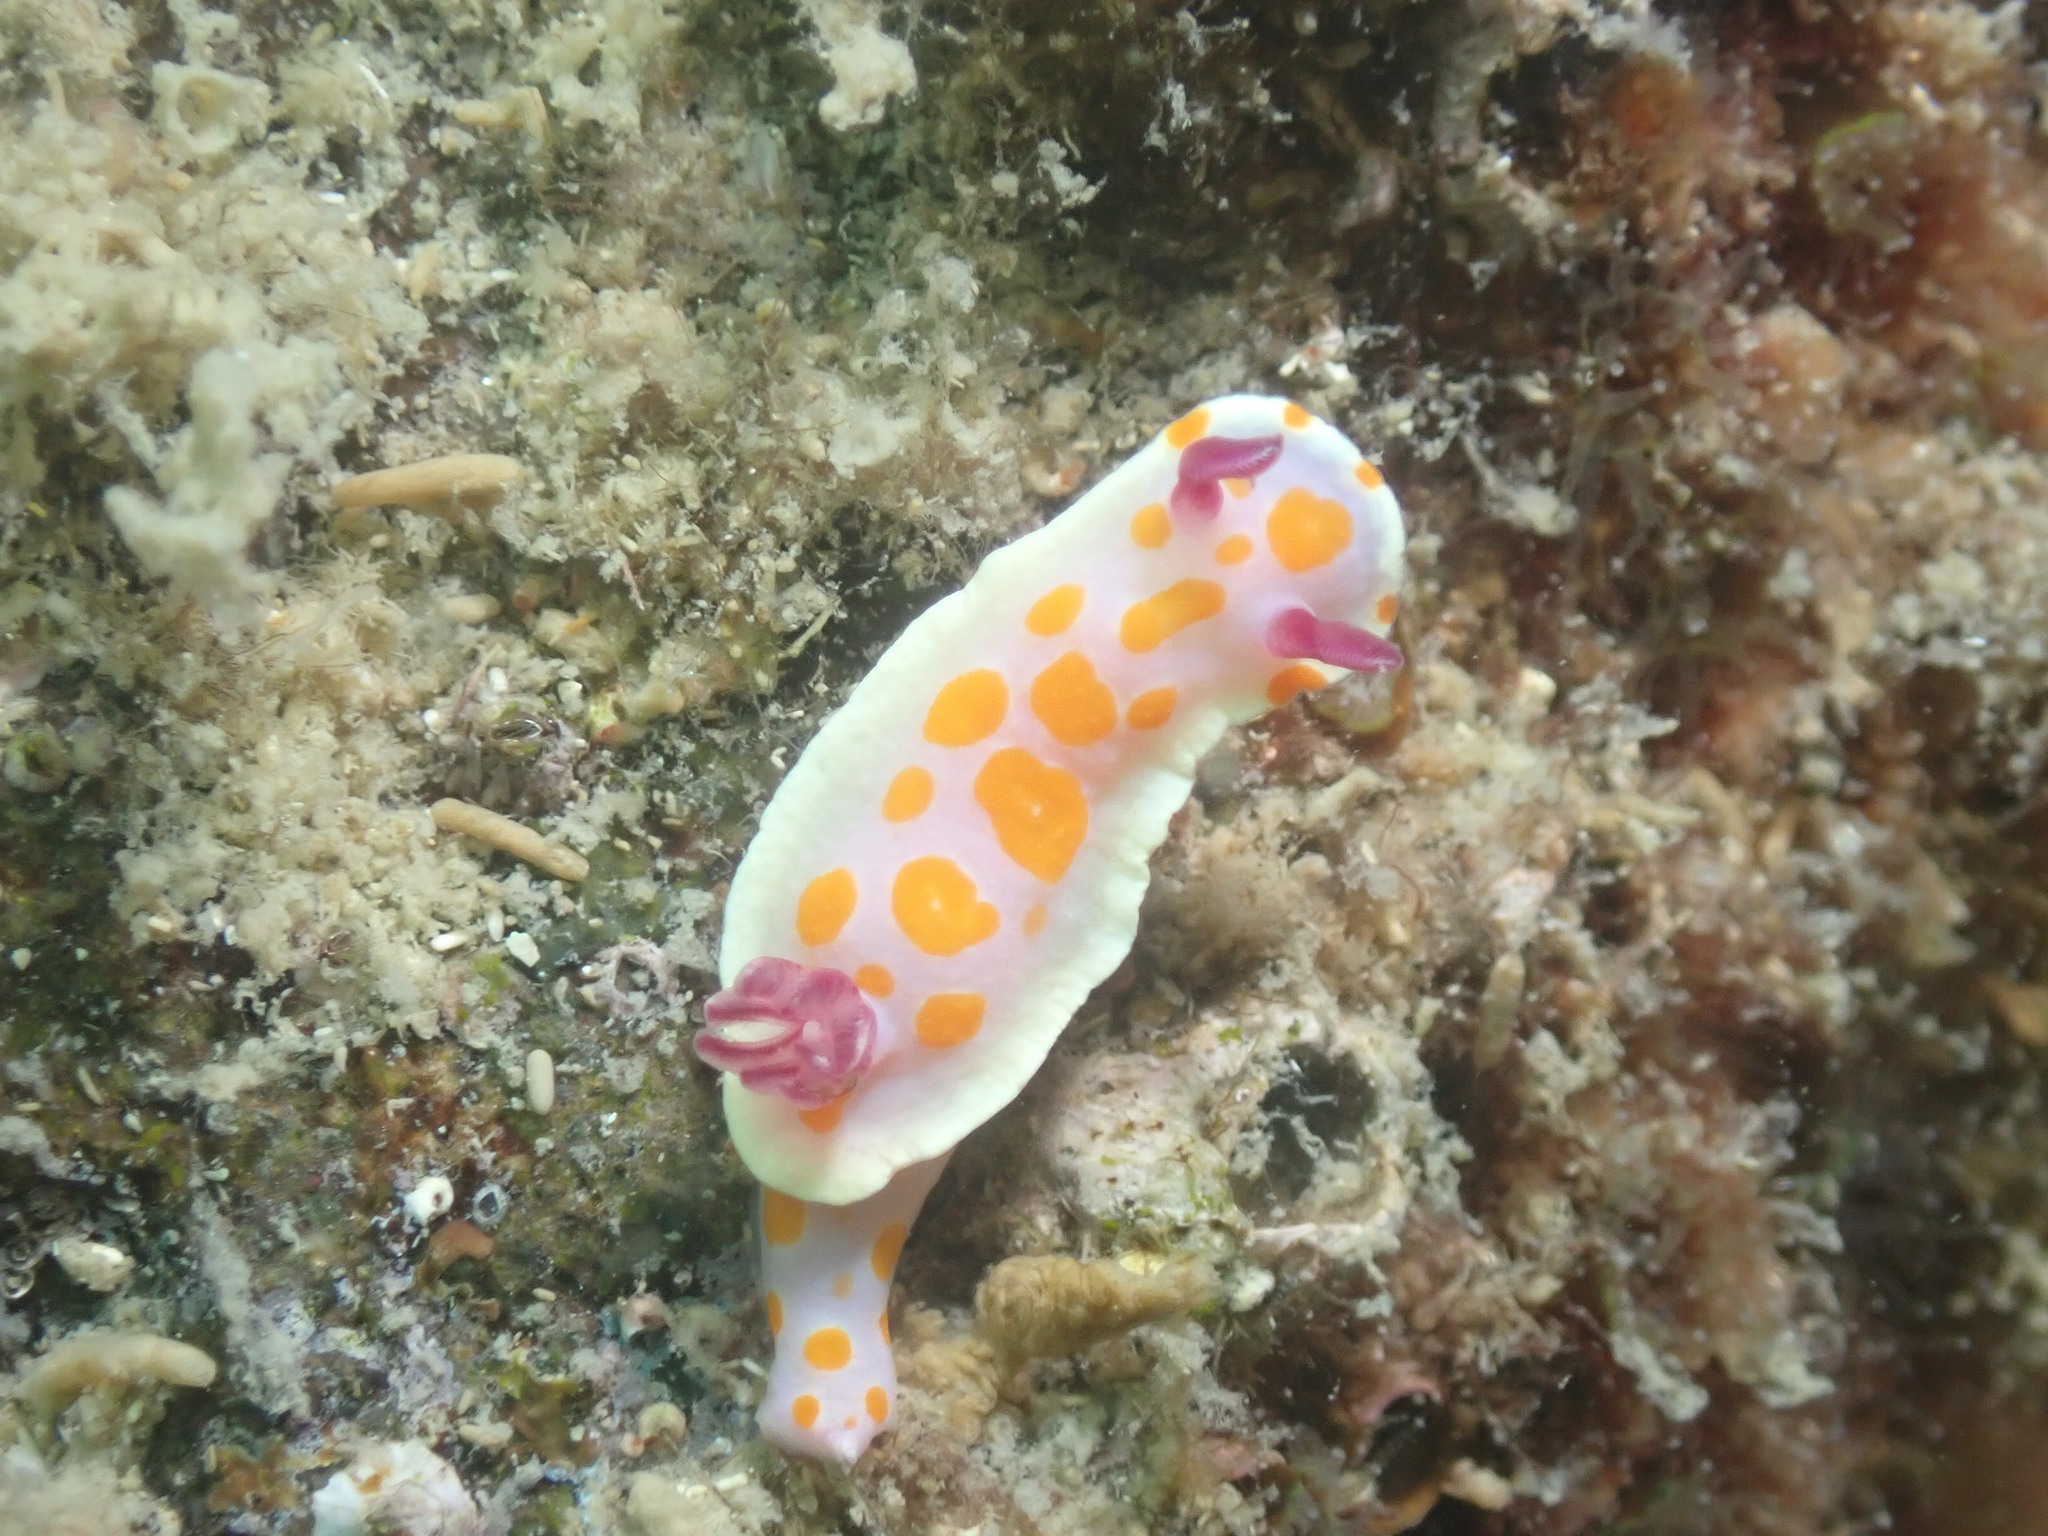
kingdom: Animalia
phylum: Mollusca
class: Gastropoda
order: Nudibranchia
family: Chromodorididae
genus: Ceratosoma
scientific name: Ceratosoma amoenum
